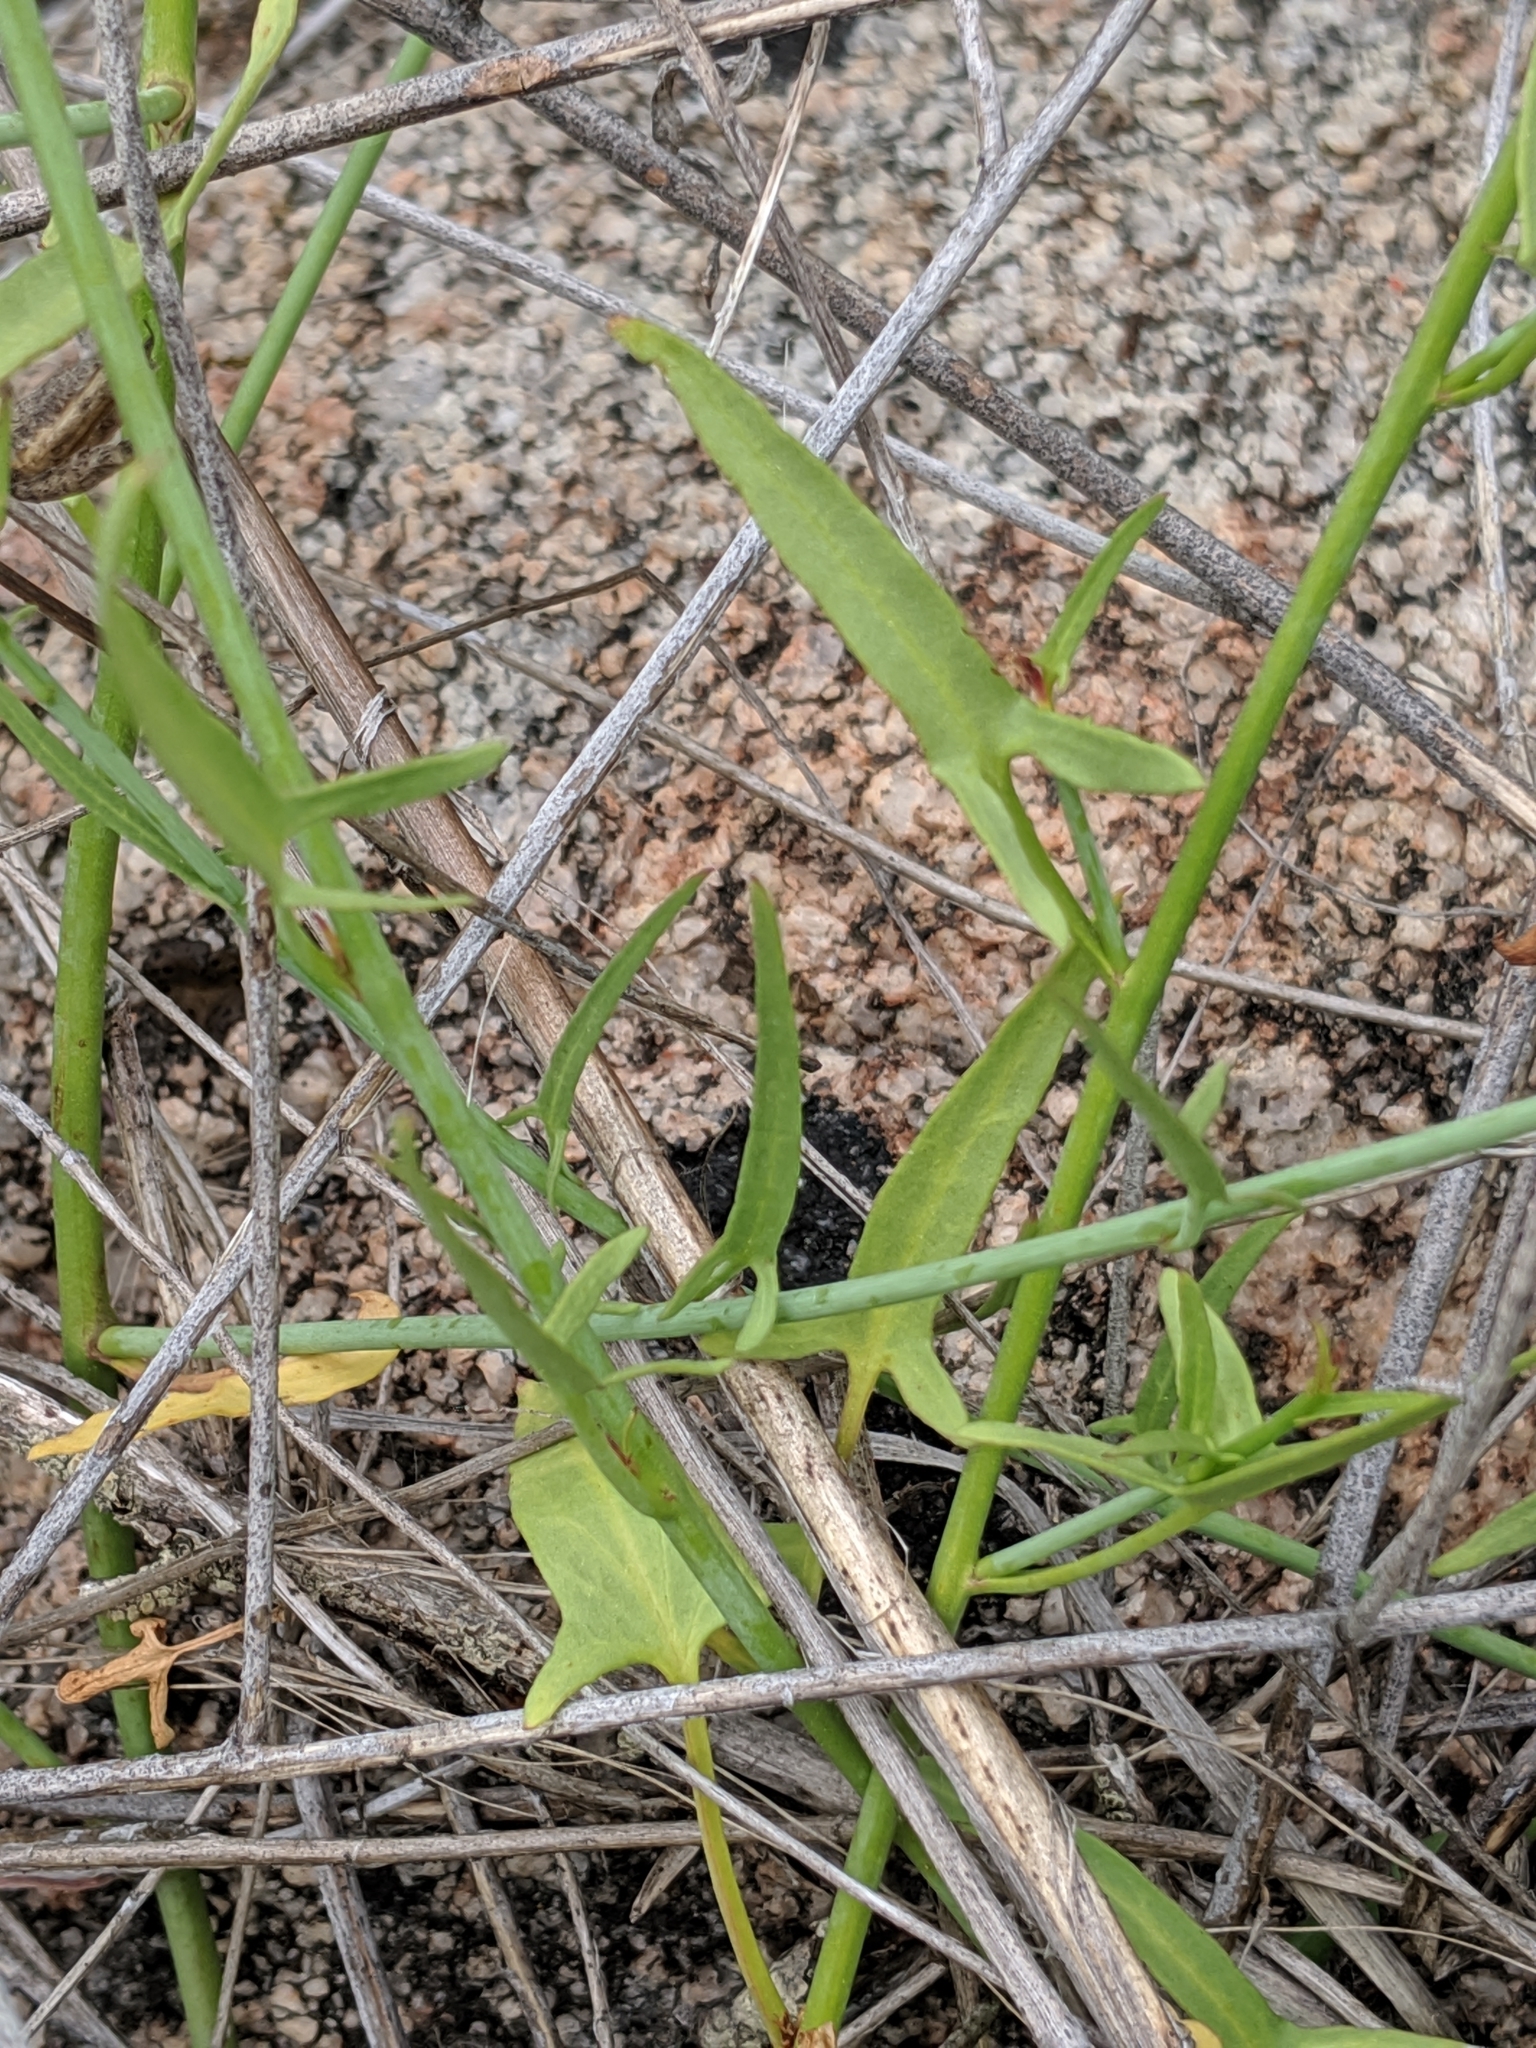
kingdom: Plantae
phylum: Tracheophyta
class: Magnoliopsida
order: Solanales
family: Convolvulaceae
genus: Calystegia
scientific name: Calystegia longipes
